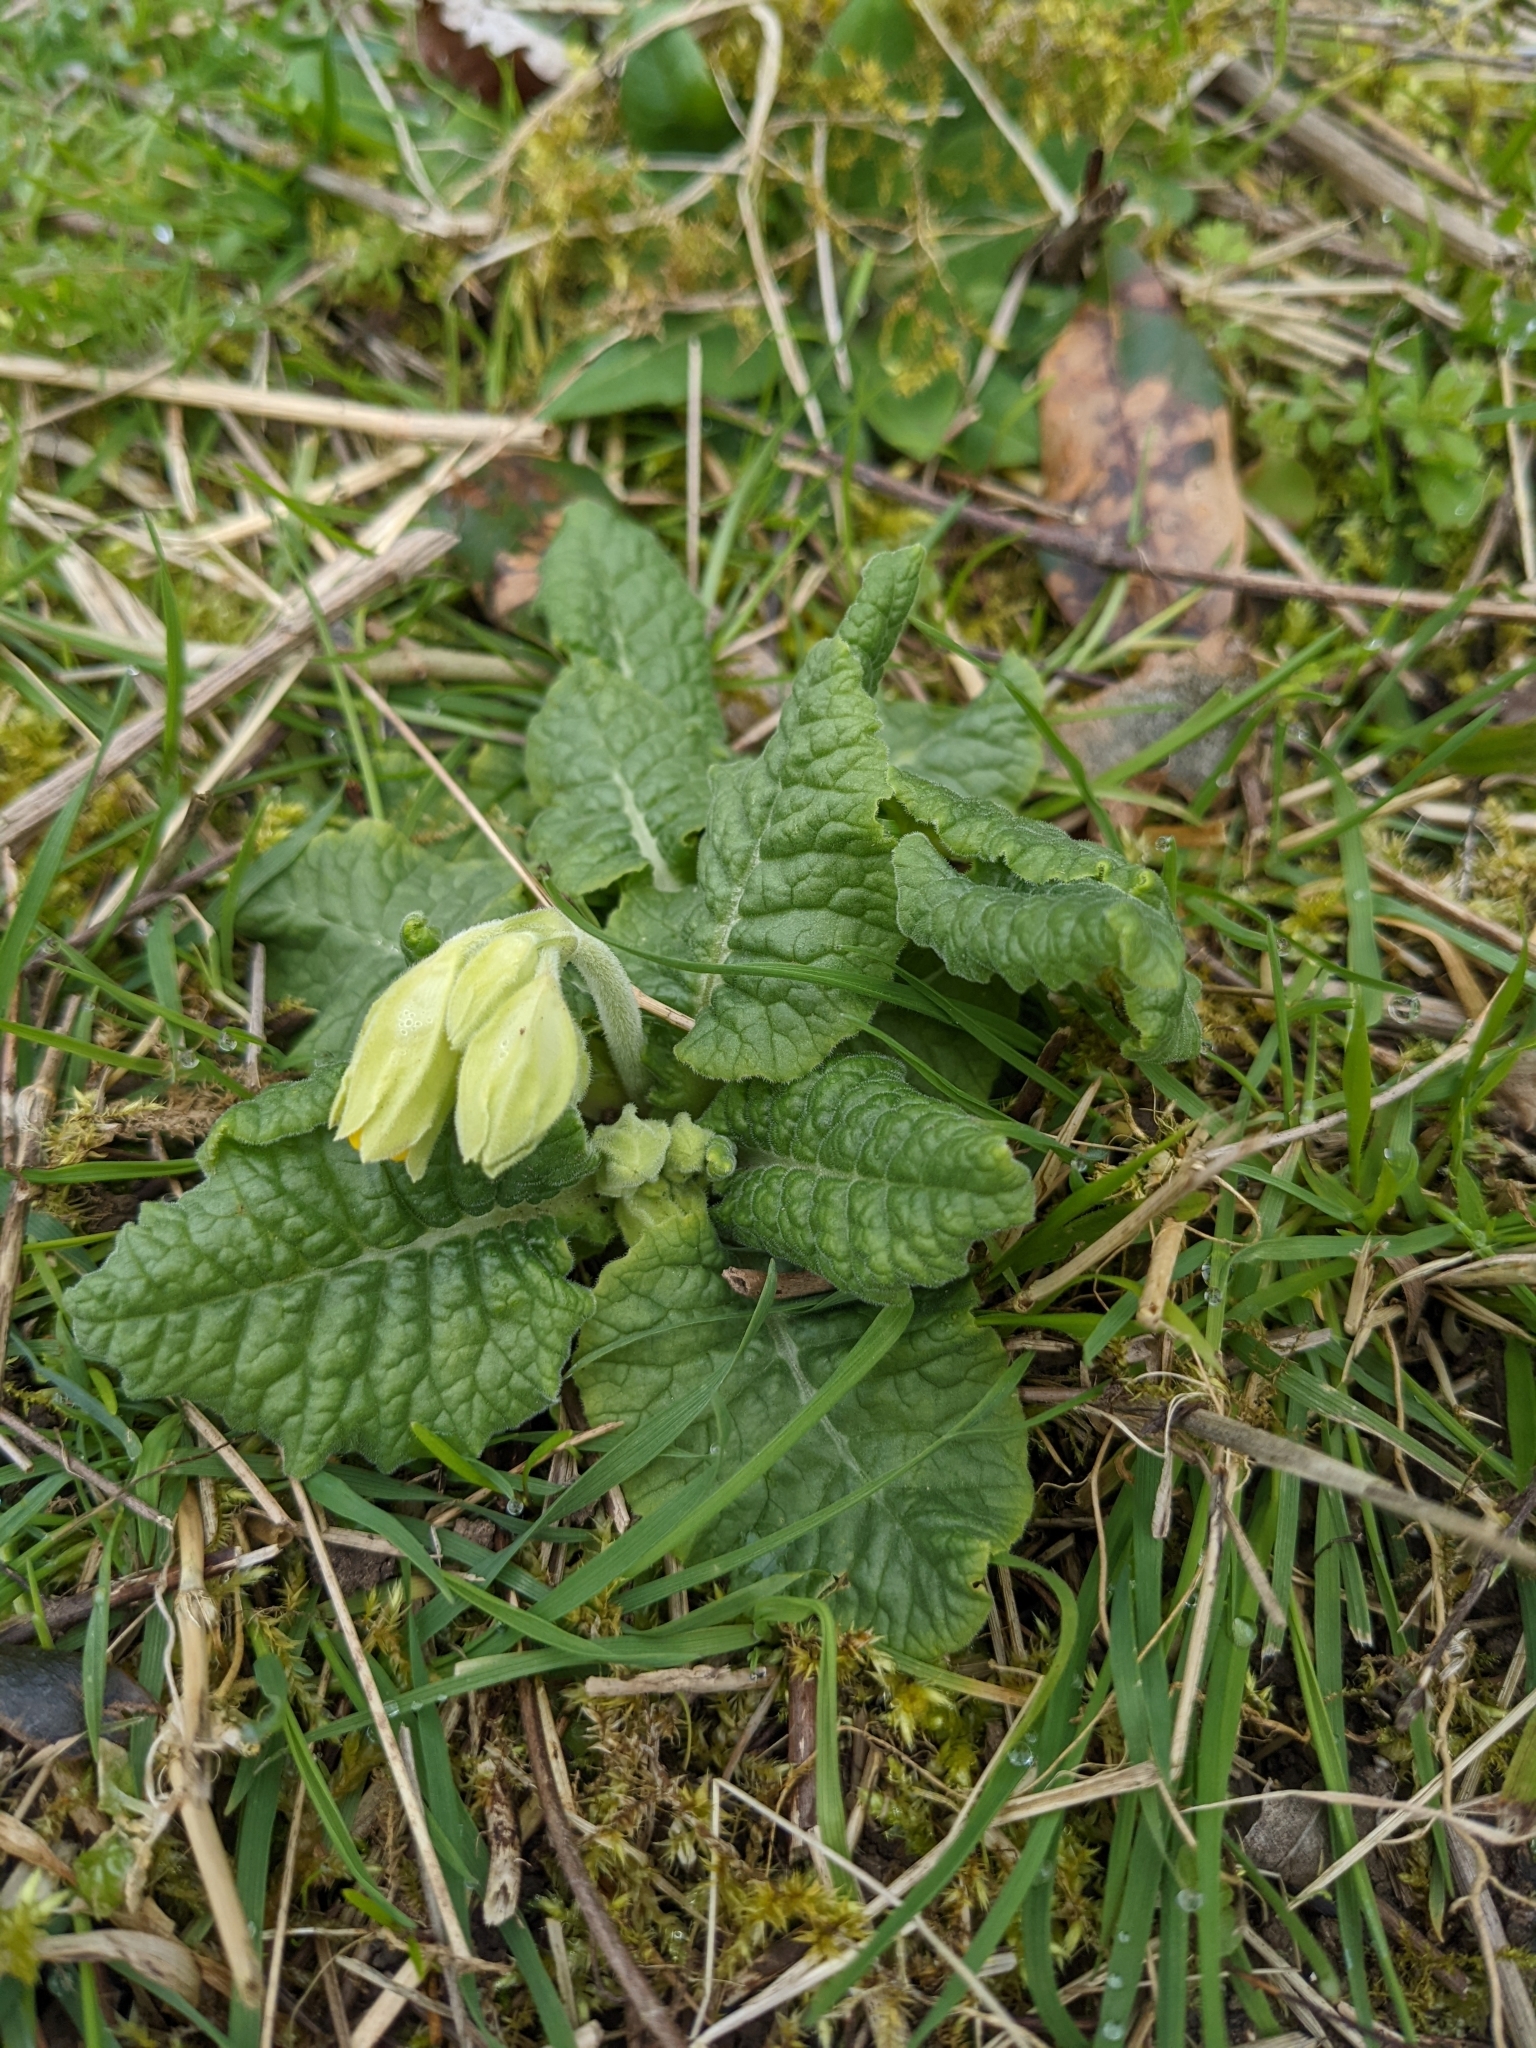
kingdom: Plantae
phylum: Tracheophyta
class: Magnoliopsida
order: Ericales
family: Primulaceae
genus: Primula
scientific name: Primula veris
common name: Cowslip
